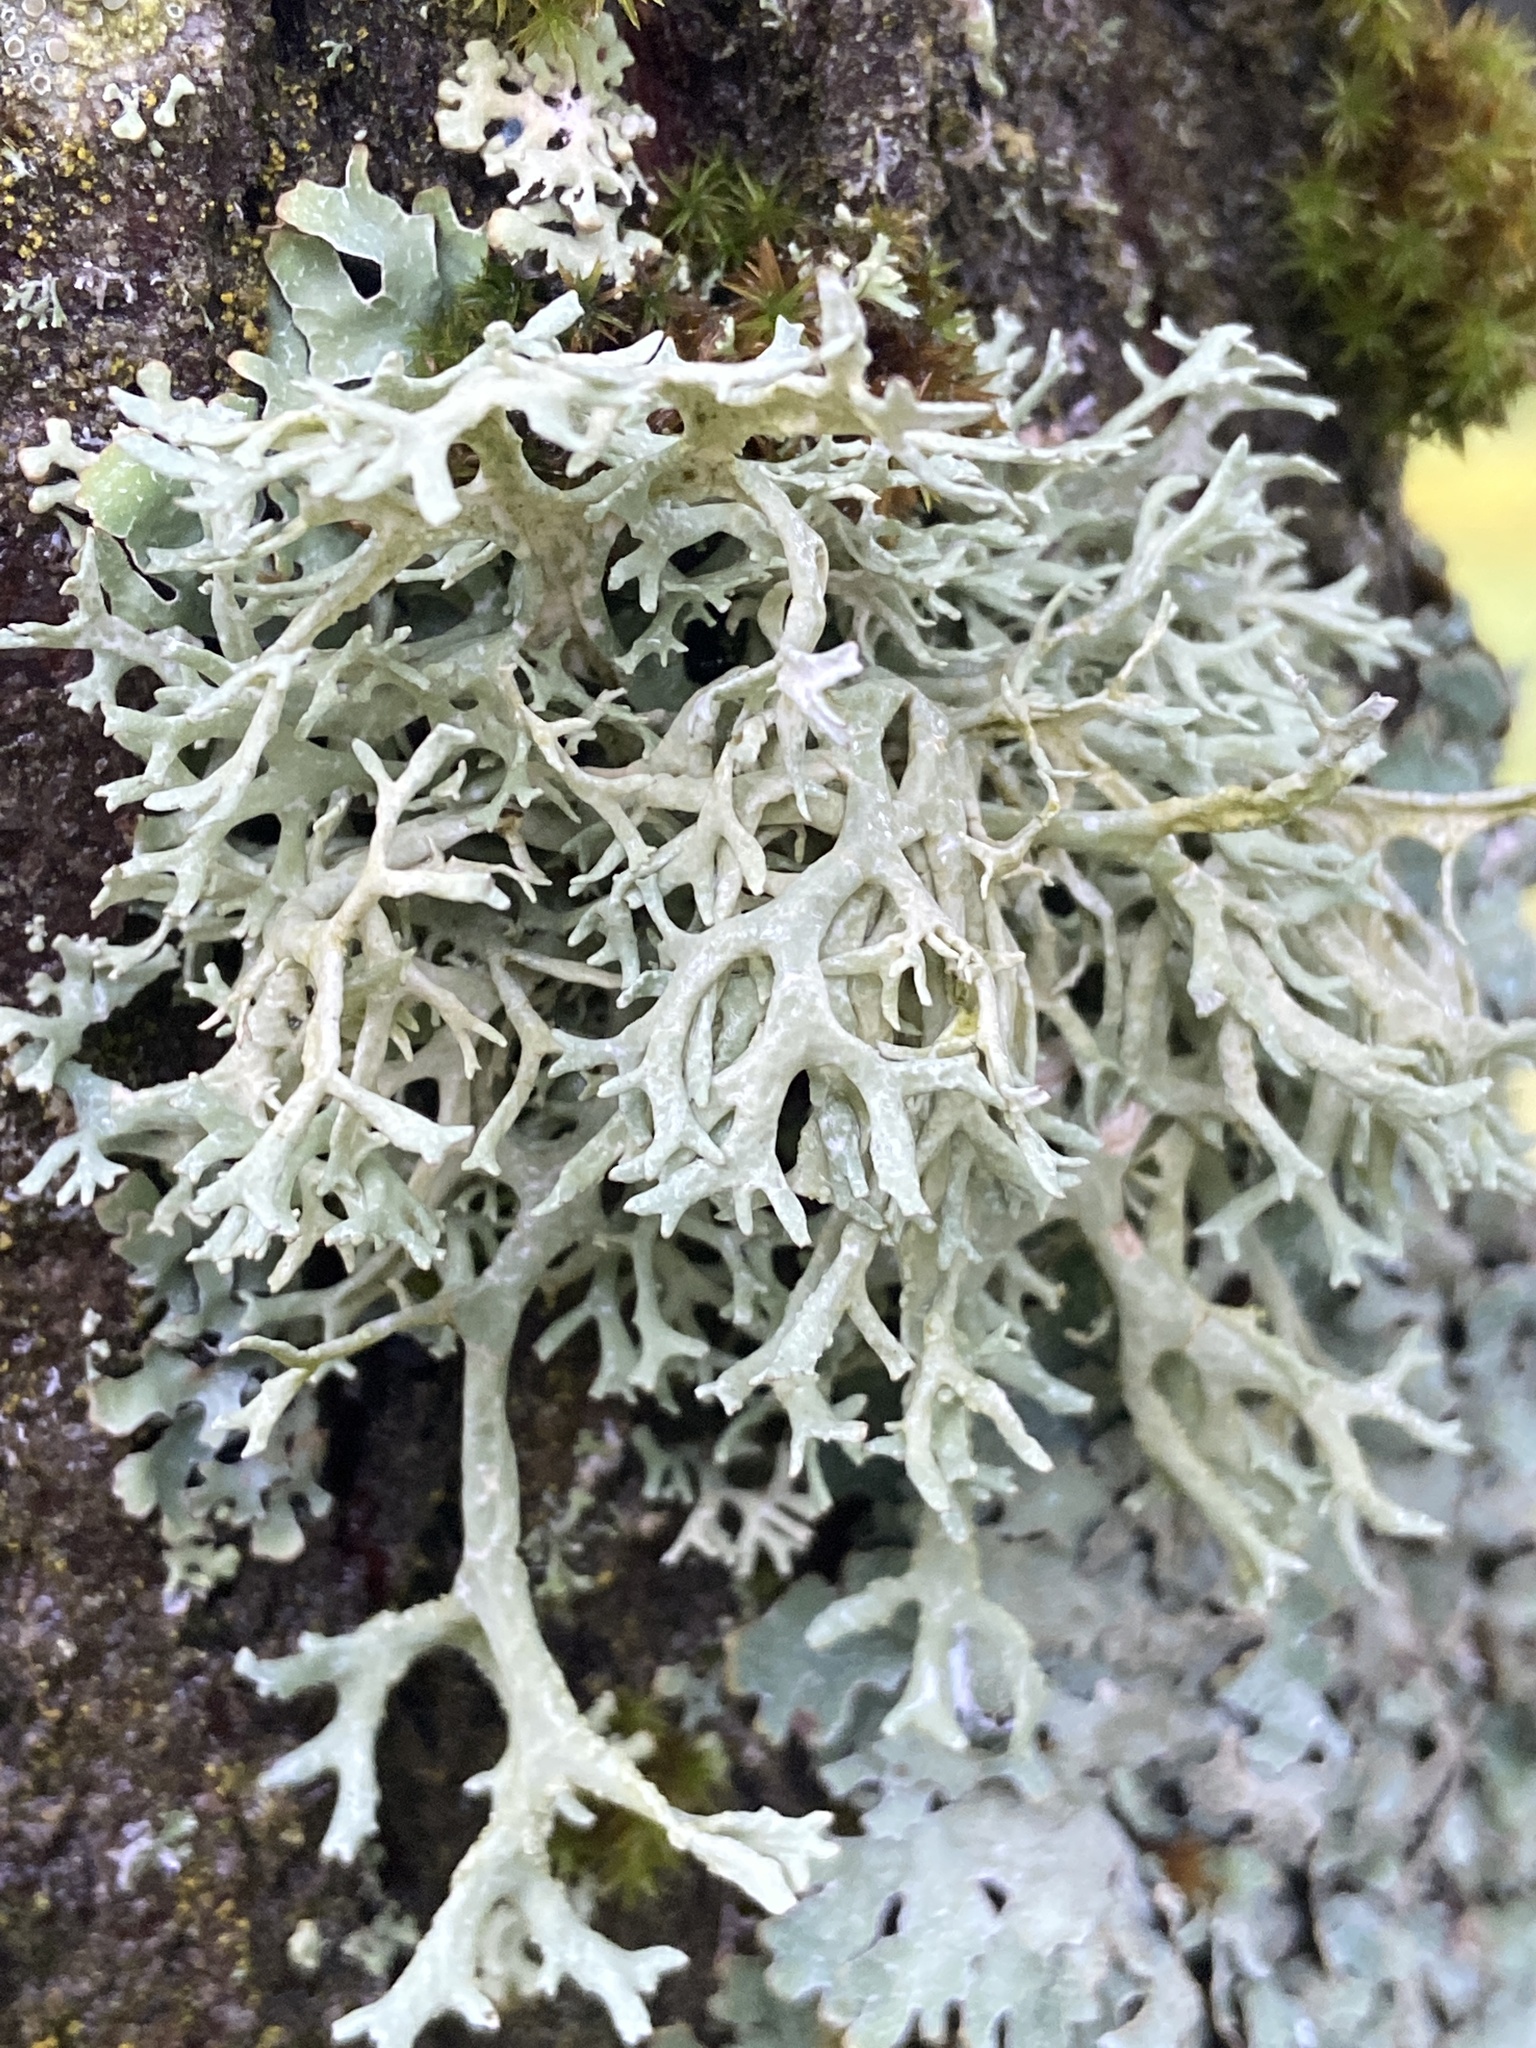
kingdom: Fungi
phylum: Ascomycota
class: Lecanoromycetes
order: Lecanorales
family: Parmeliaceae
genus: Evernia
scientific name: Evernia prunastri
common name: Oak moss
